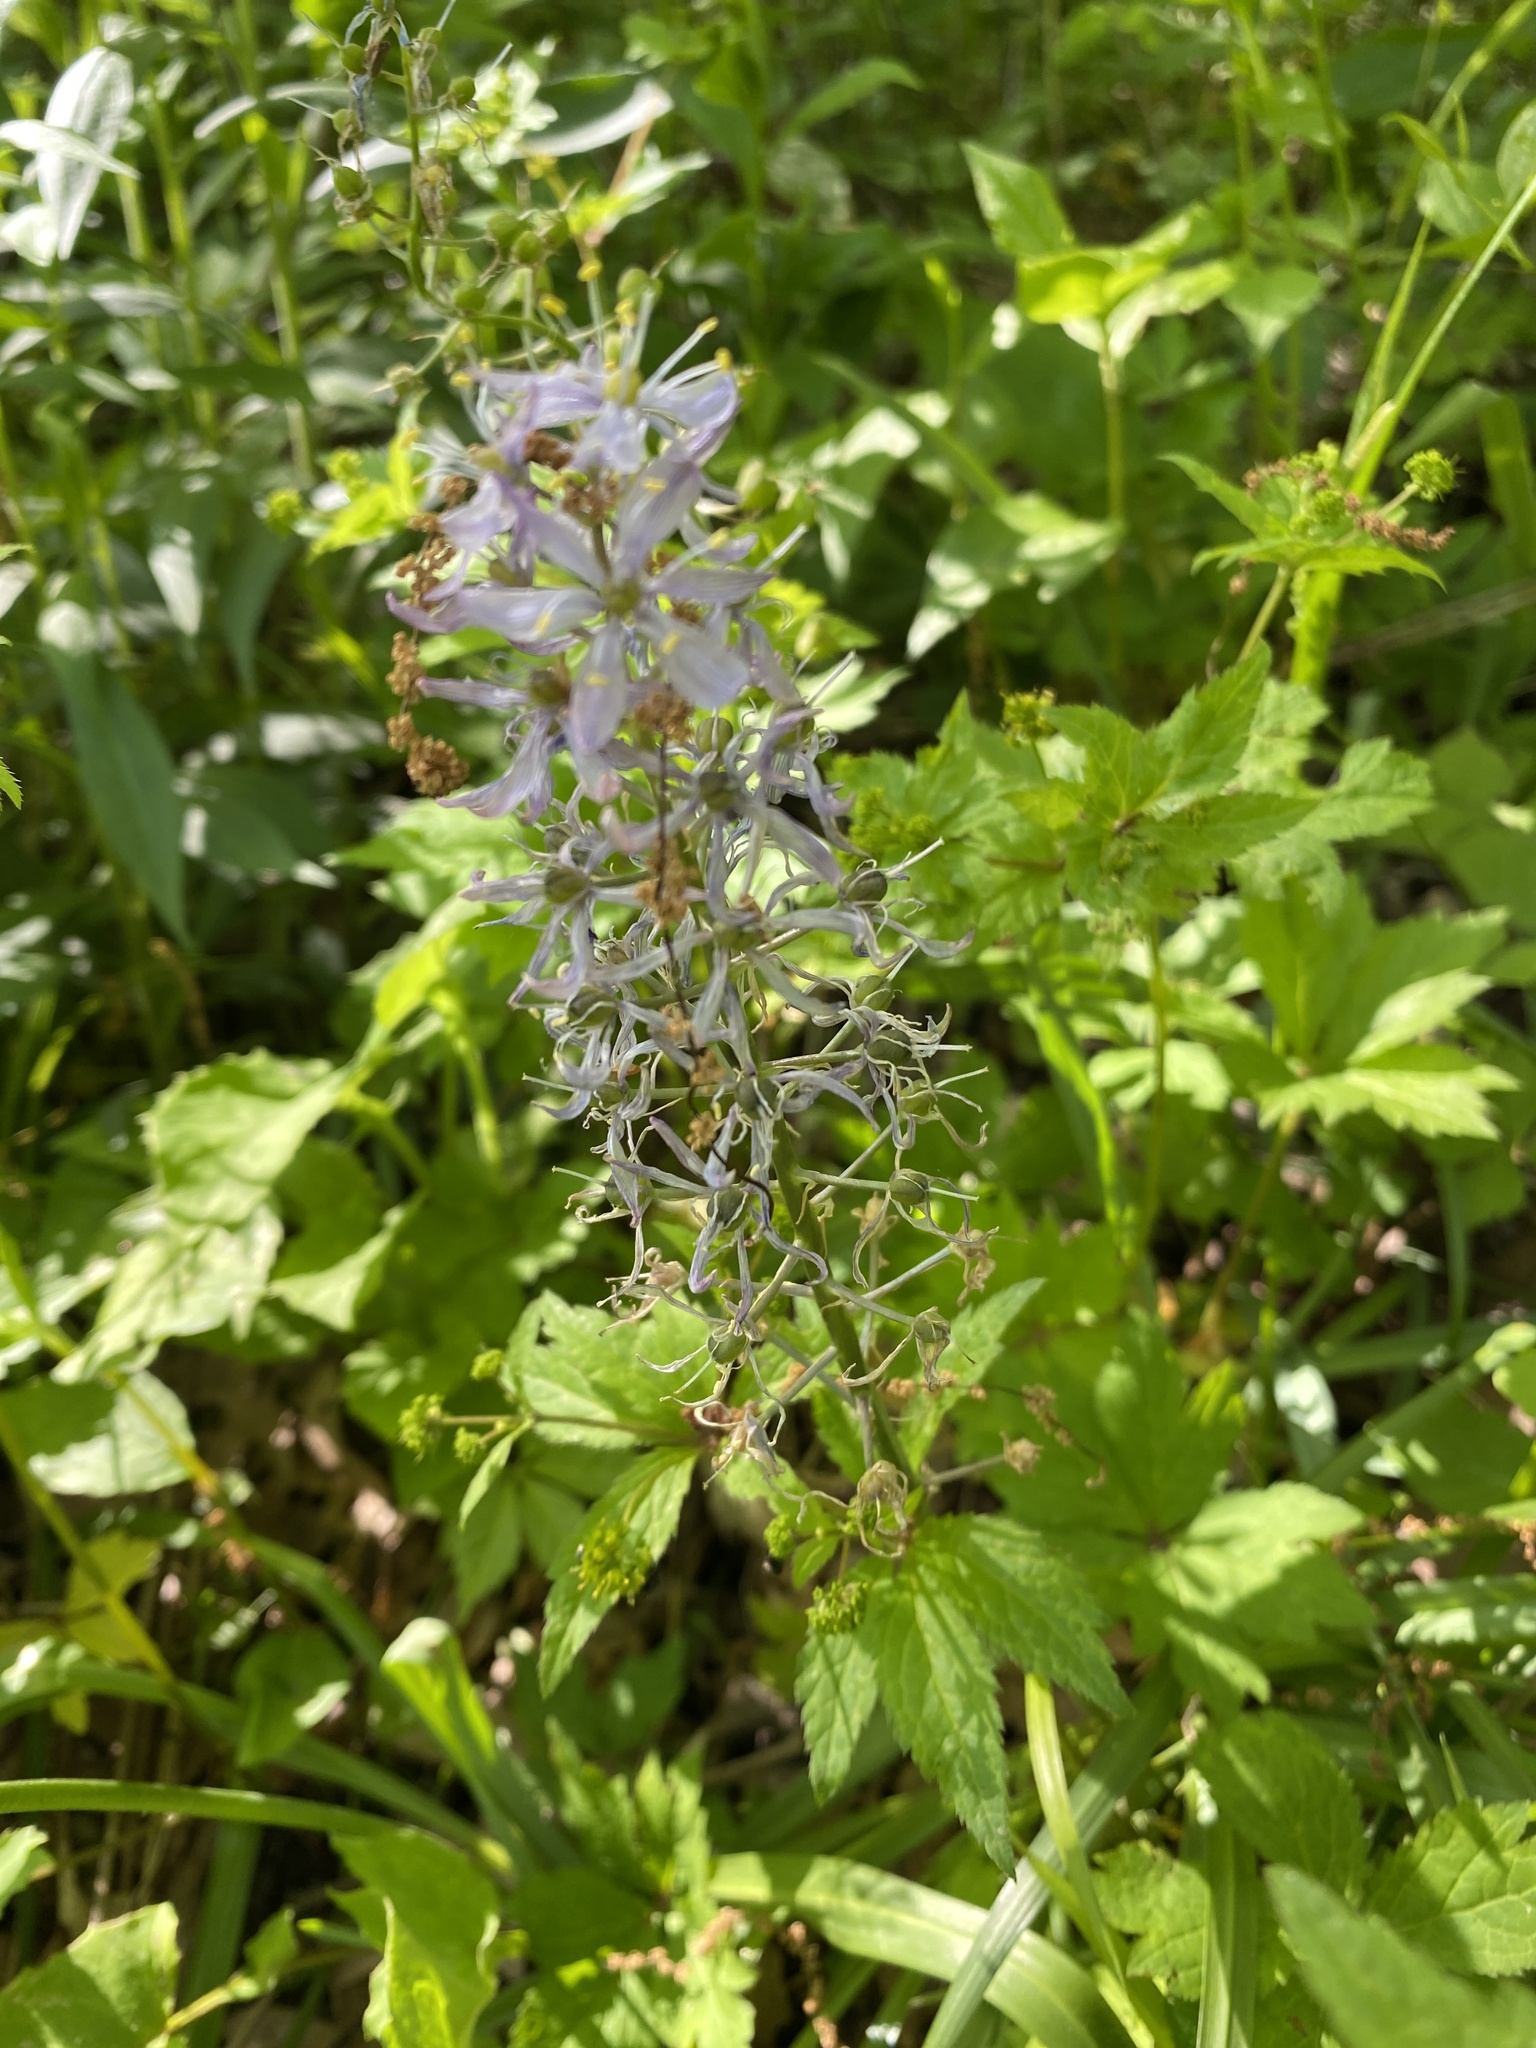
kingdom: Plantae
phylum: Tracheophyta
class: Liliopsida
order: Asparagales
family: Asparagaceae
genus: Camassia
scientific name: Camassia scilloides
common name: Wild hyacinth
